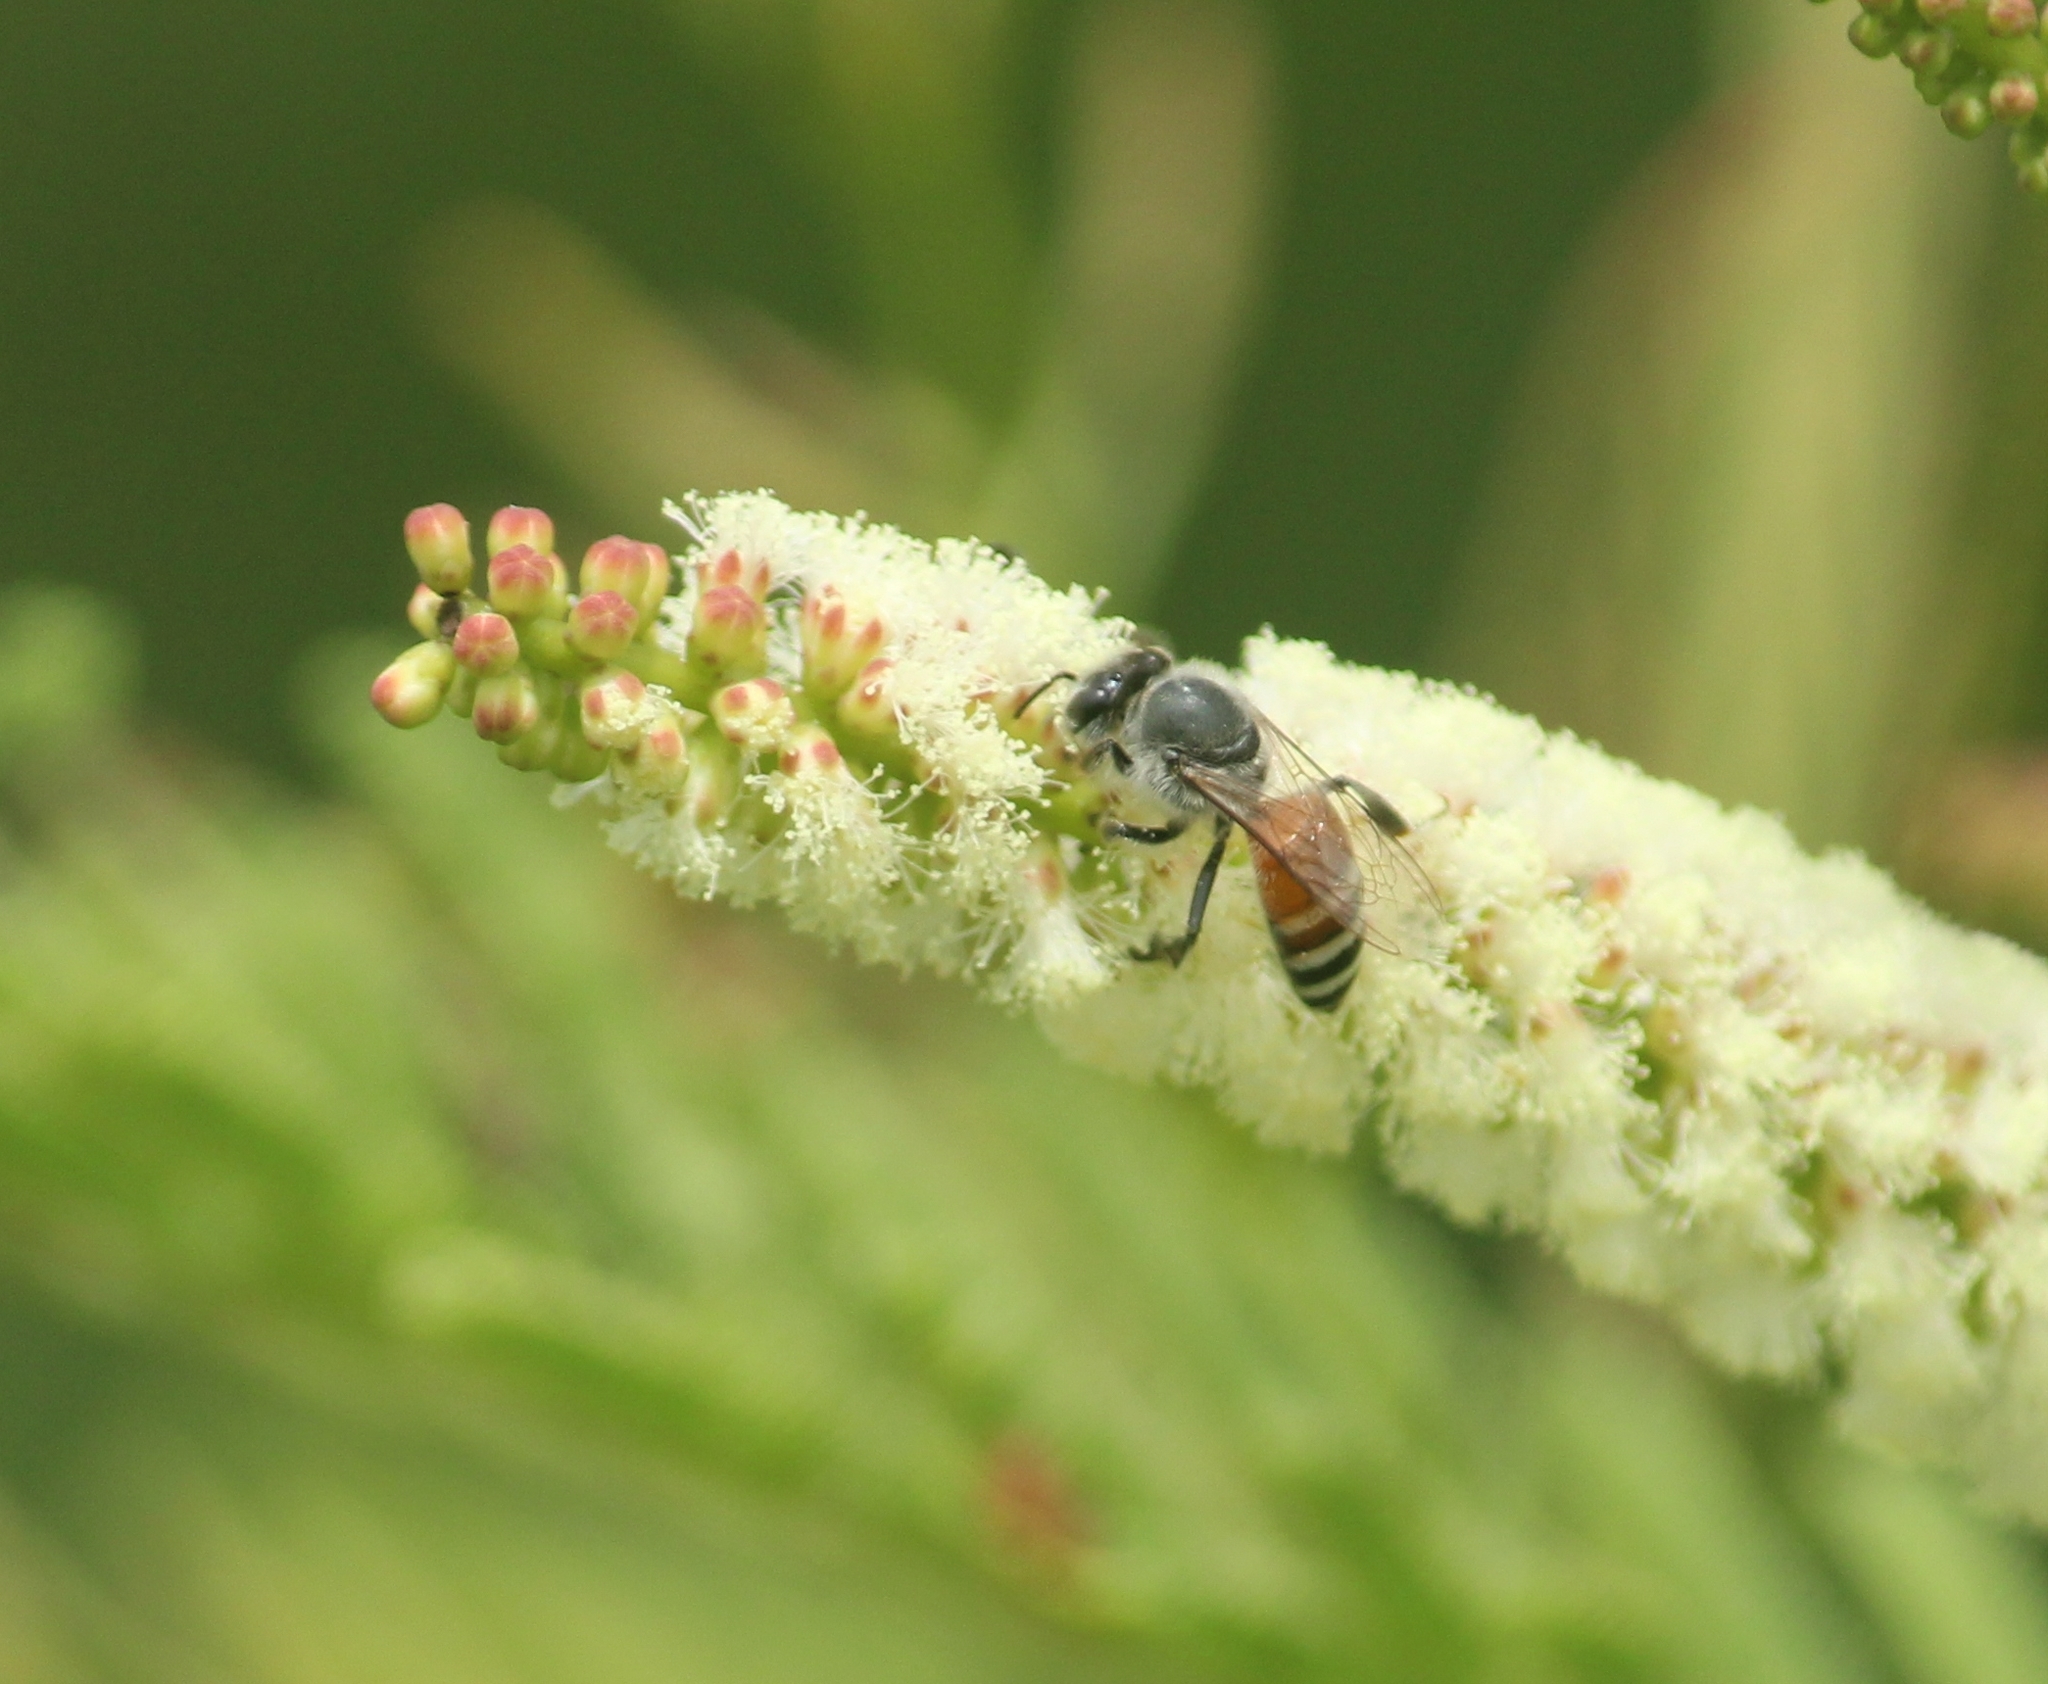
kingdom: Animalia
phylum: Arthropoda
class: Insecta
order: Hymenoptera
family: Apidae
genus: Apis
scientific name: Apis florea
